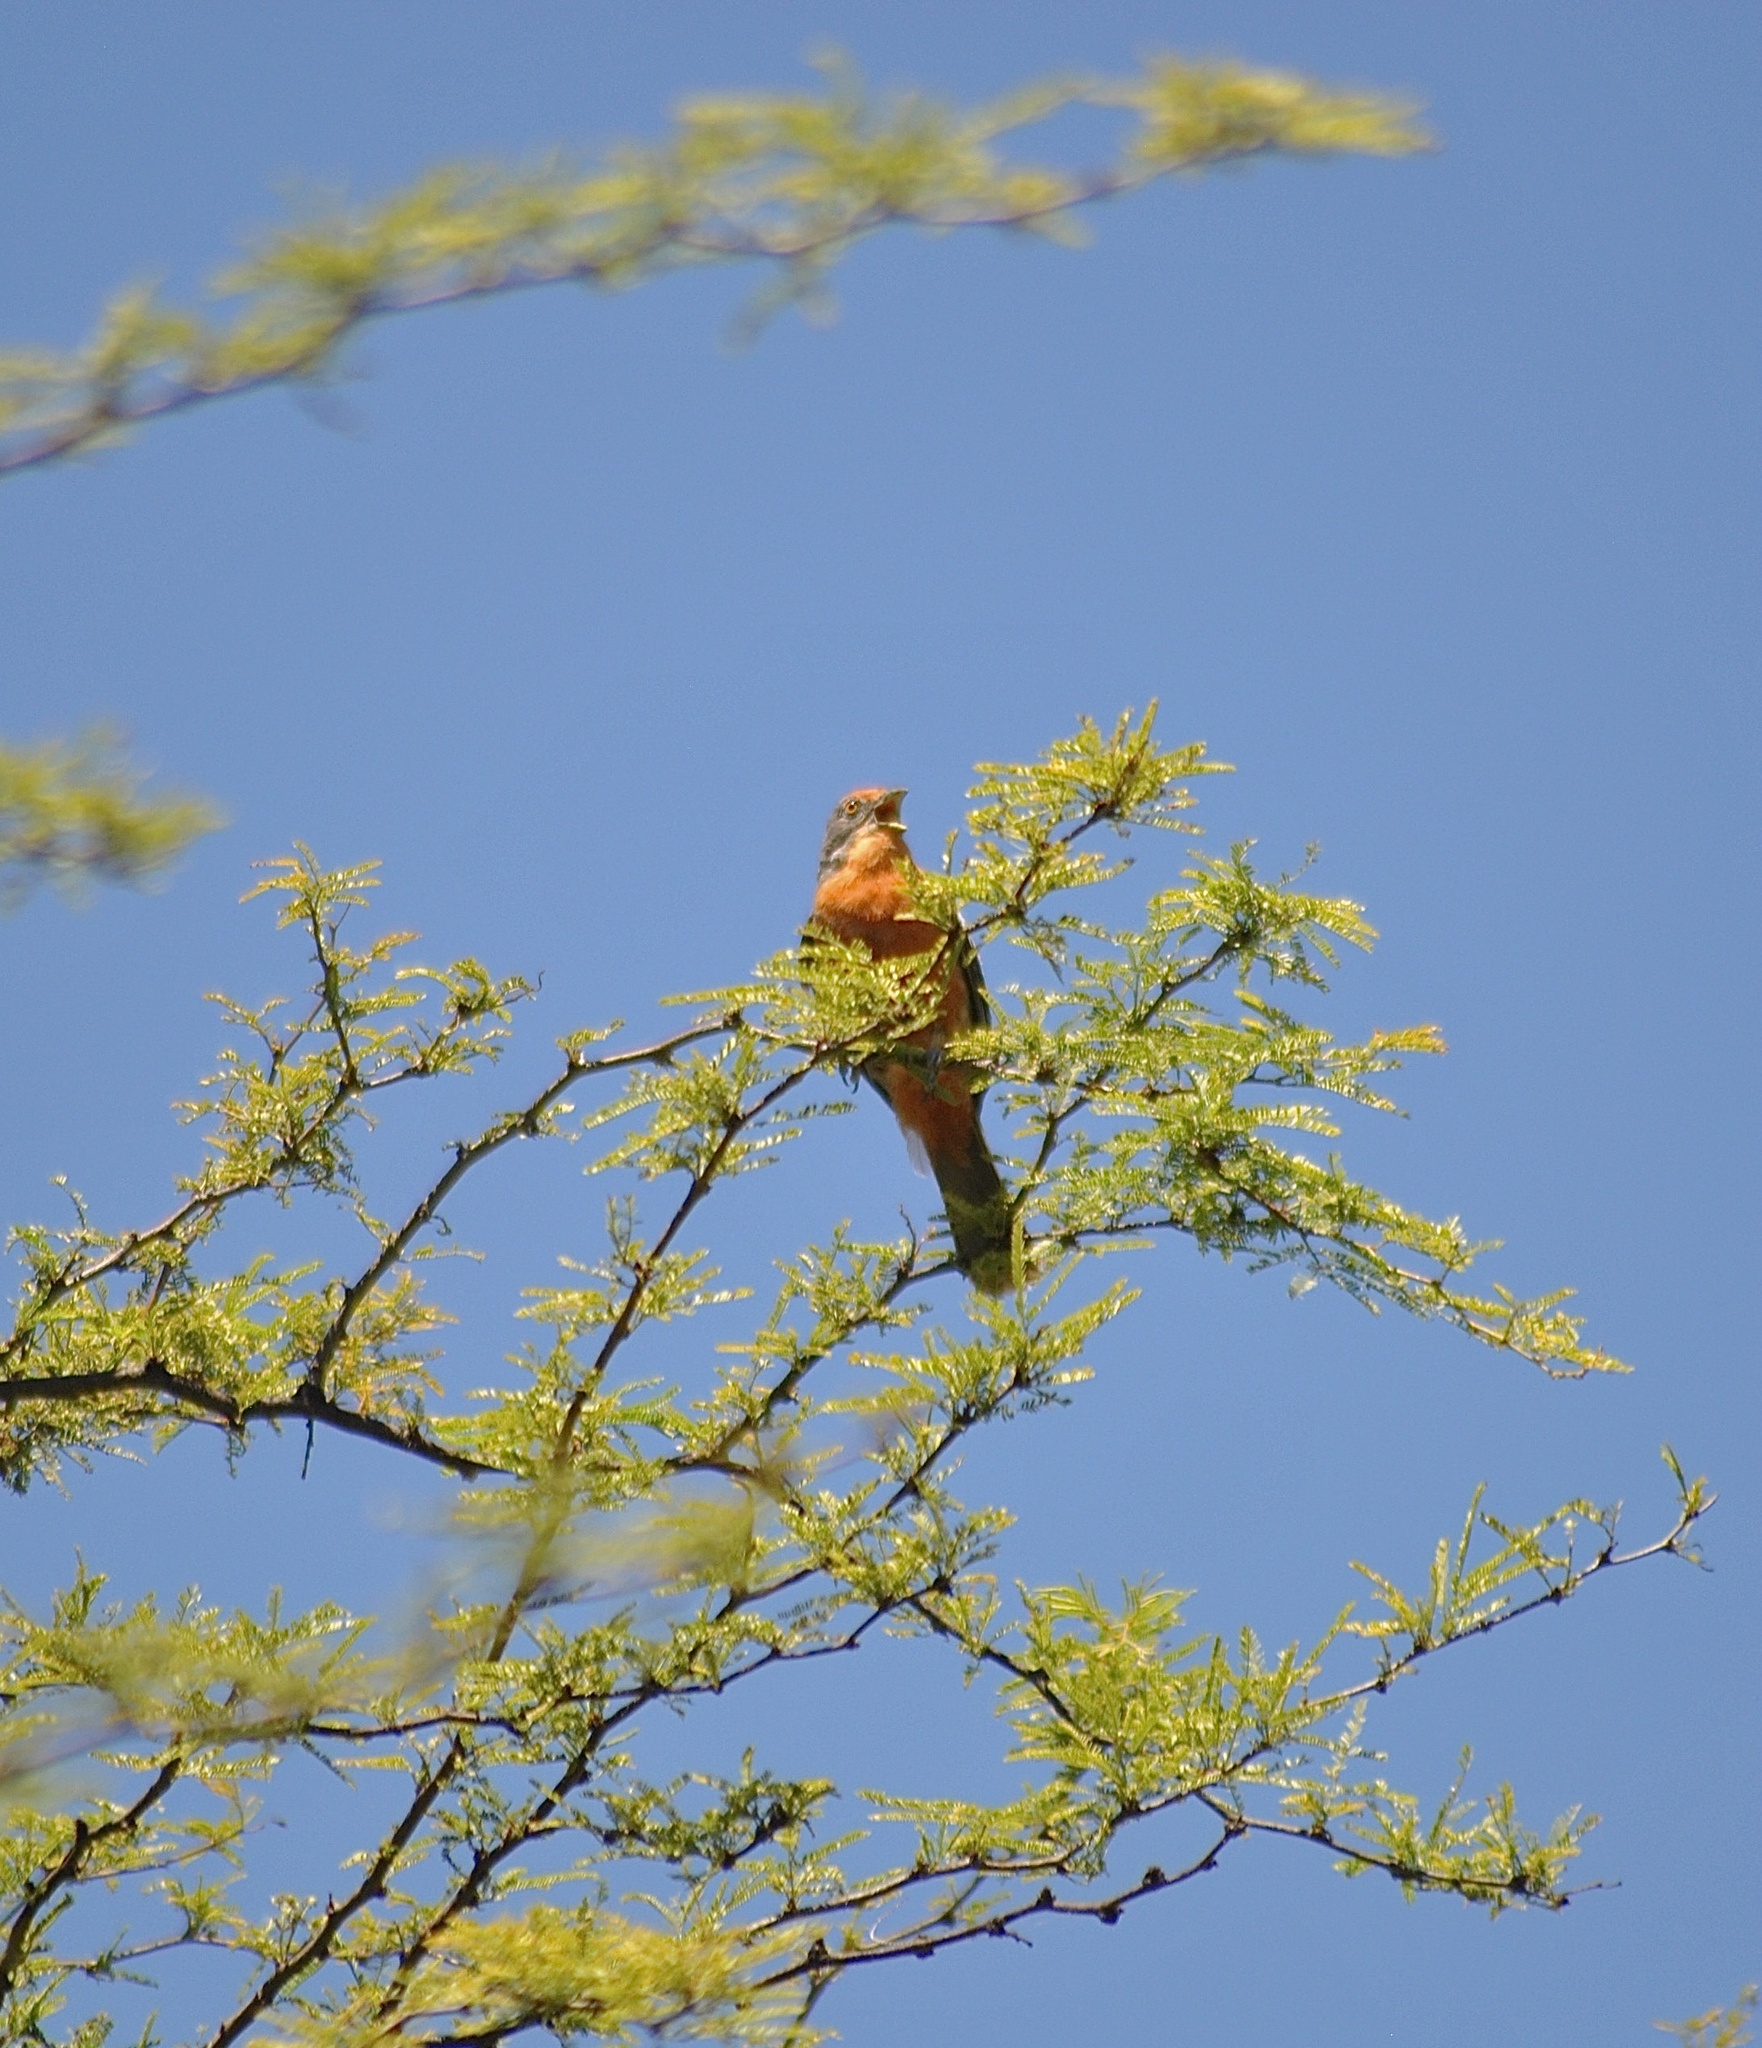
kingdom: Animalia
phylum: Chordata
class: Aves
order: Passeriformes
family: Cotingidae
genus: Phytotoma
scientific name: Phytotoma rutila
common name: White-tipped plantcutter
